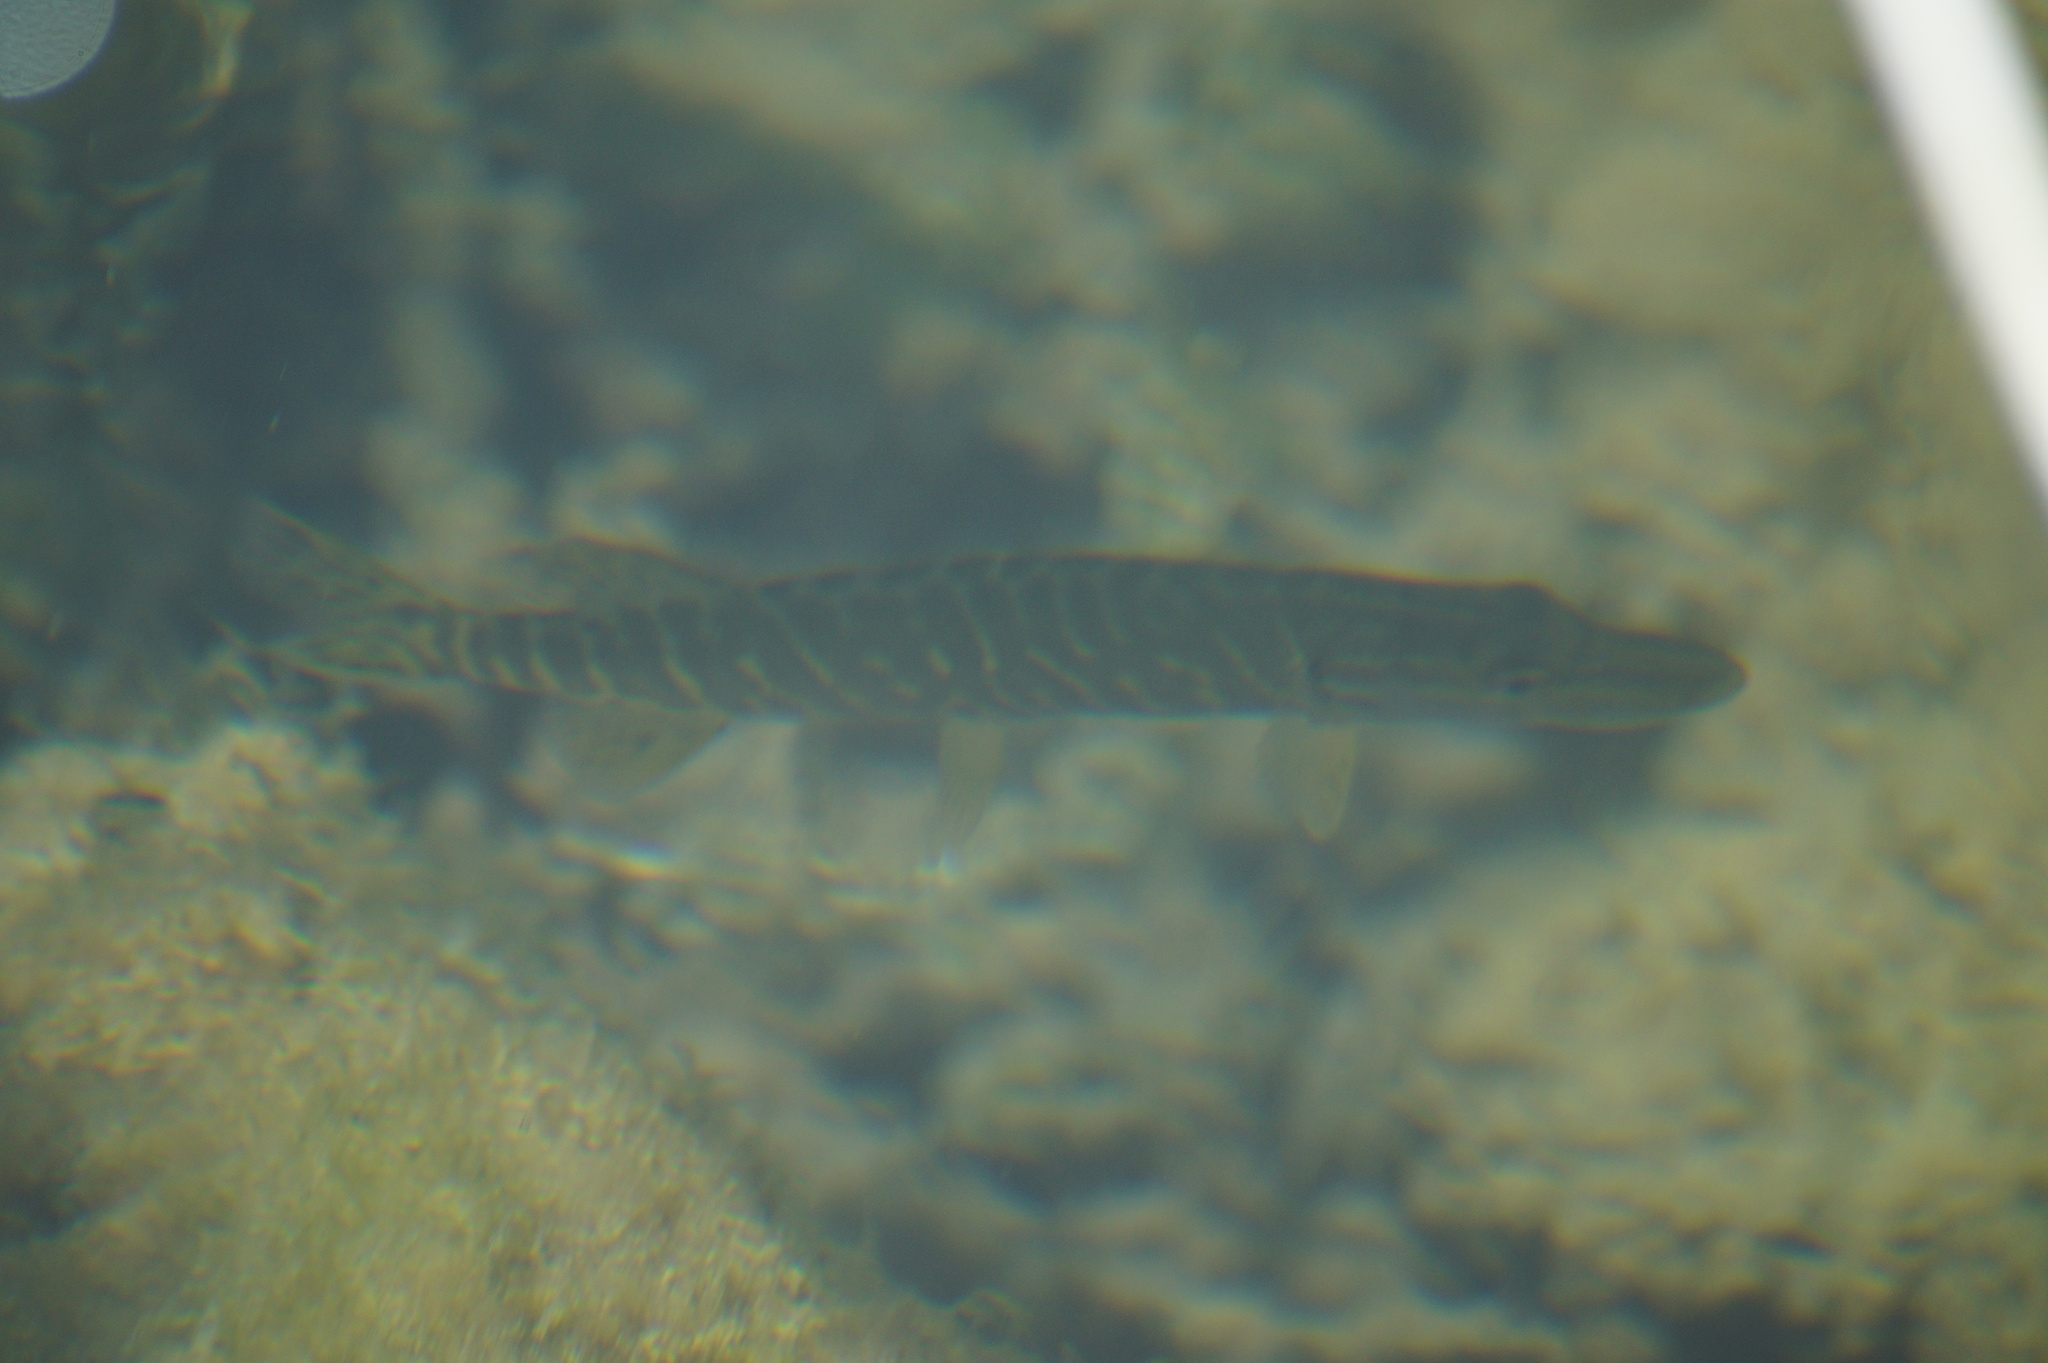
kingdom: Animalia
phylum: Chordata
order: Esociformes
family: Esocidae
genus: Esox
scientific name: Esox lucius
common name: Northern pike
